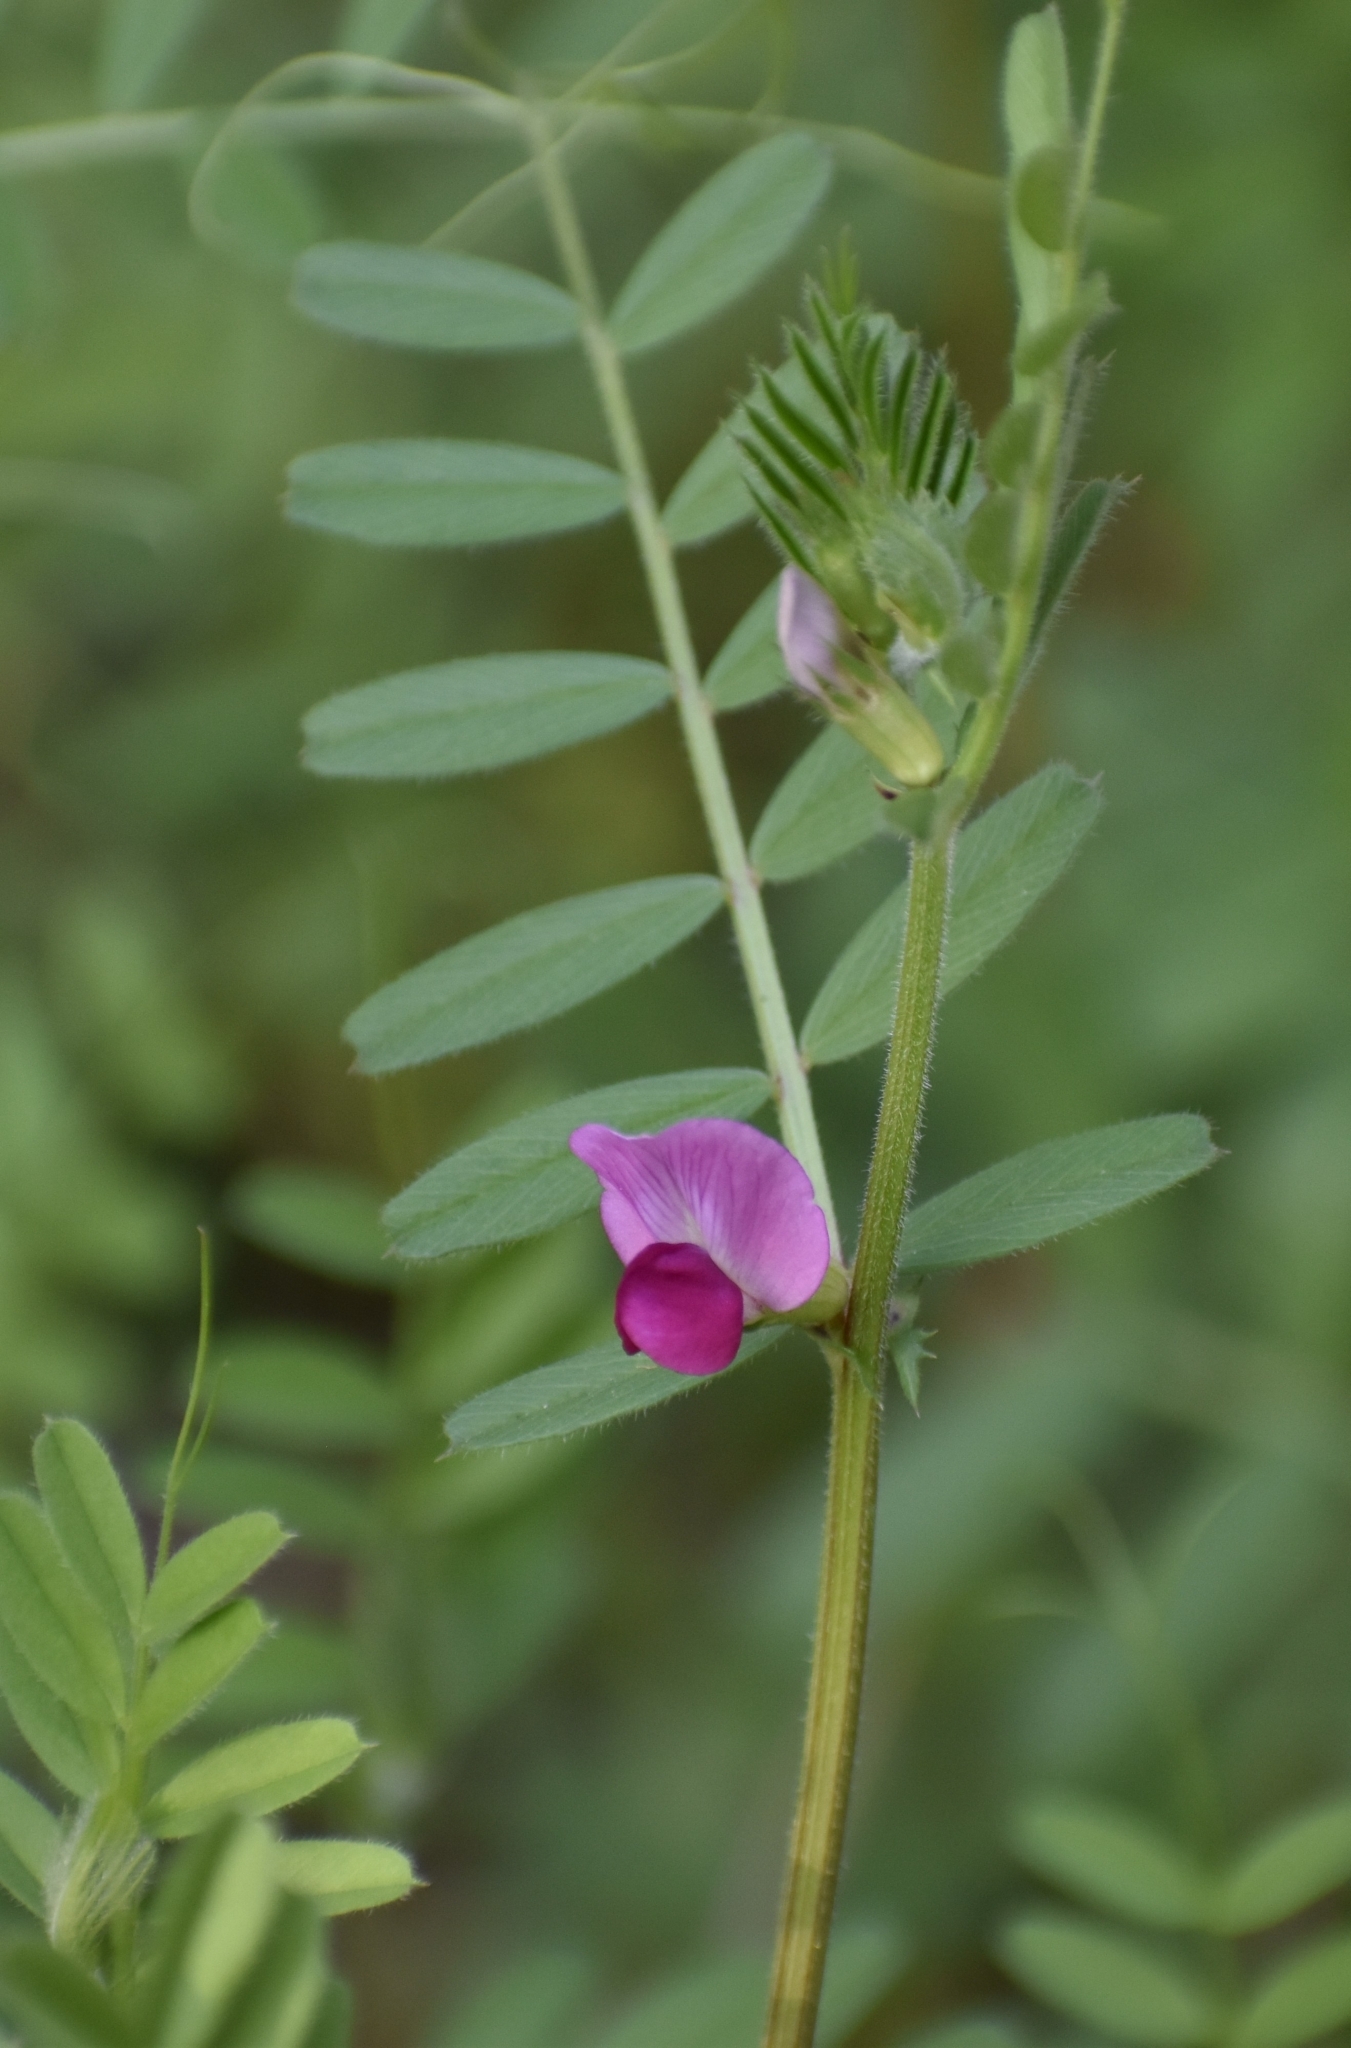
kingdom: Plantae
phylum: Tracheophyta
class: Magnoliopsida
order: Fabales
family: Fabaceae
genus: Vicia
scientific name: Vicia sativa
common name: Garden vetch
